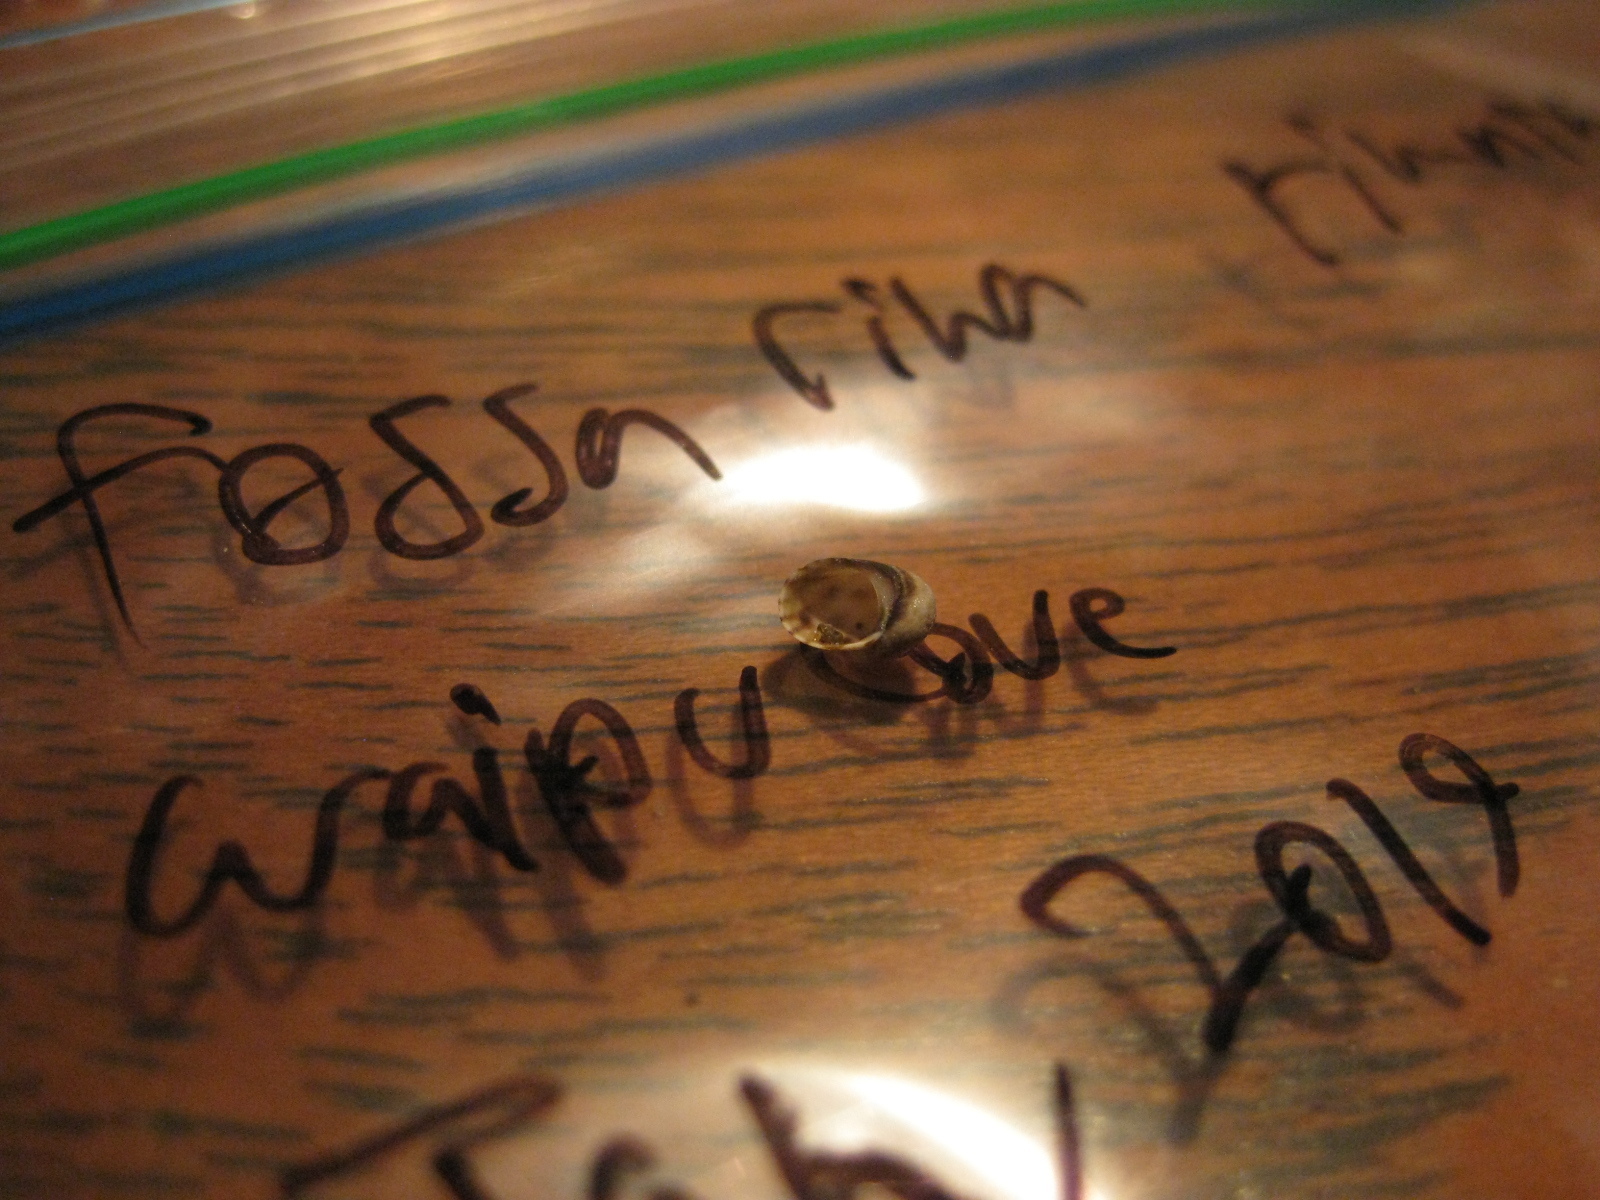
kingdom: Animalia
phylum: Mollusca
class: Gastropoda
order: Trochida
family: Trochidae
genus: Fossarina
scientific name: Fossarina rimata
